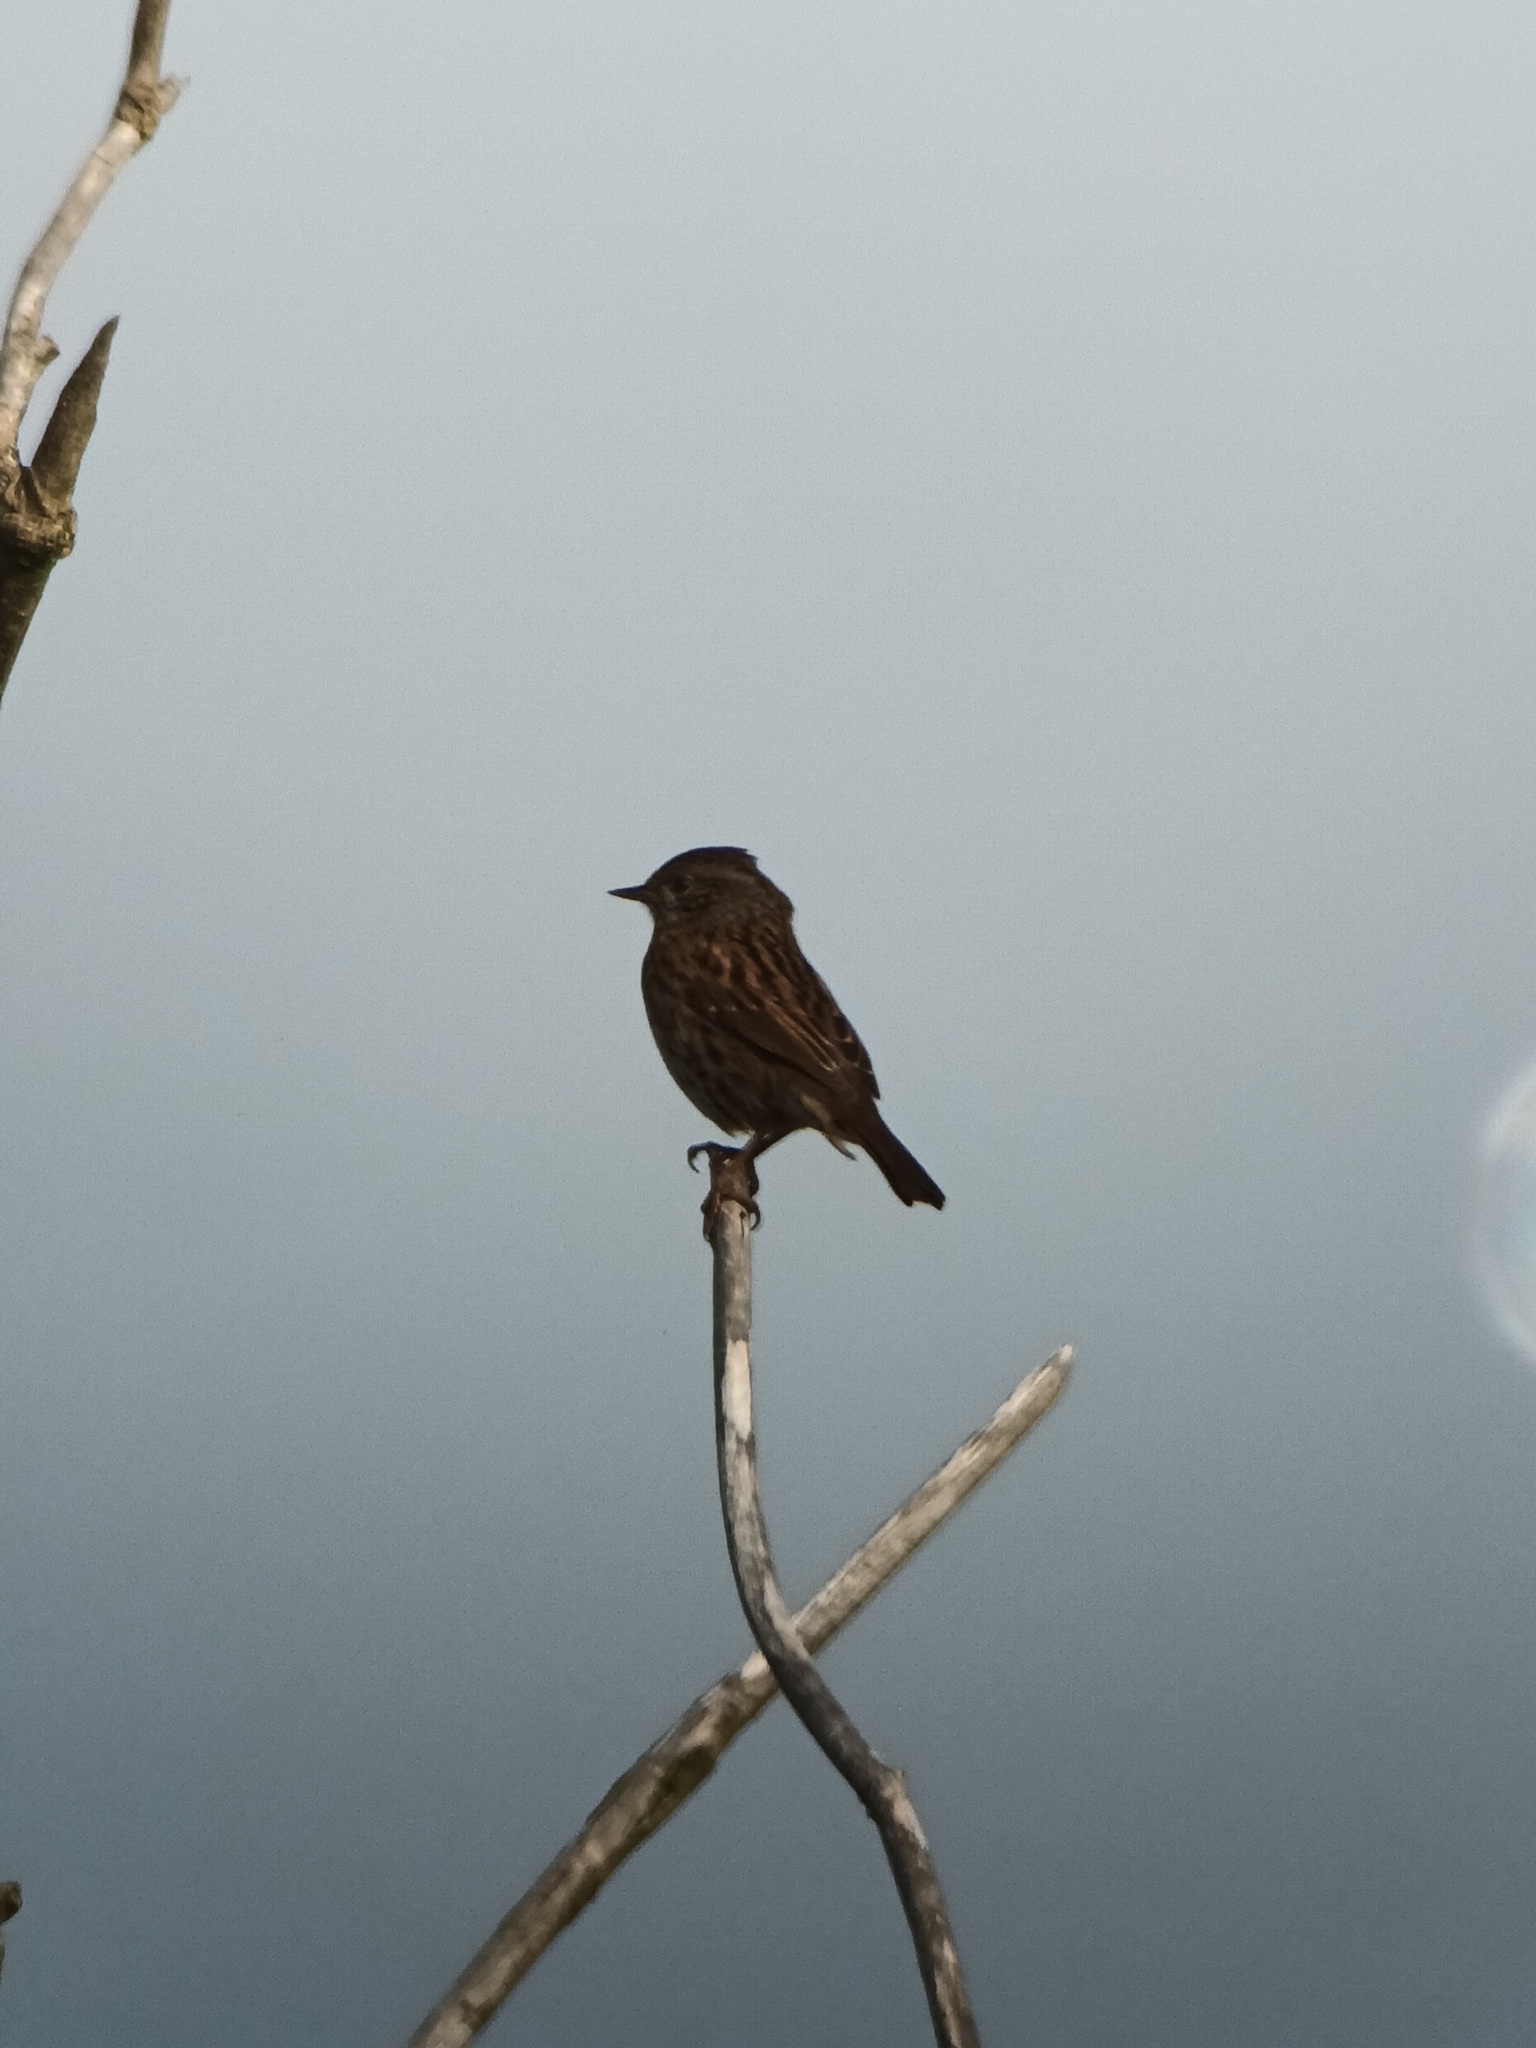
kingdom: Animalia
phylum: Chordata
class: Aves
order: Passeriformes
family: Prunellidae
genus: Prunella
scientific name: Prunella modularis
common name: Dunnock
